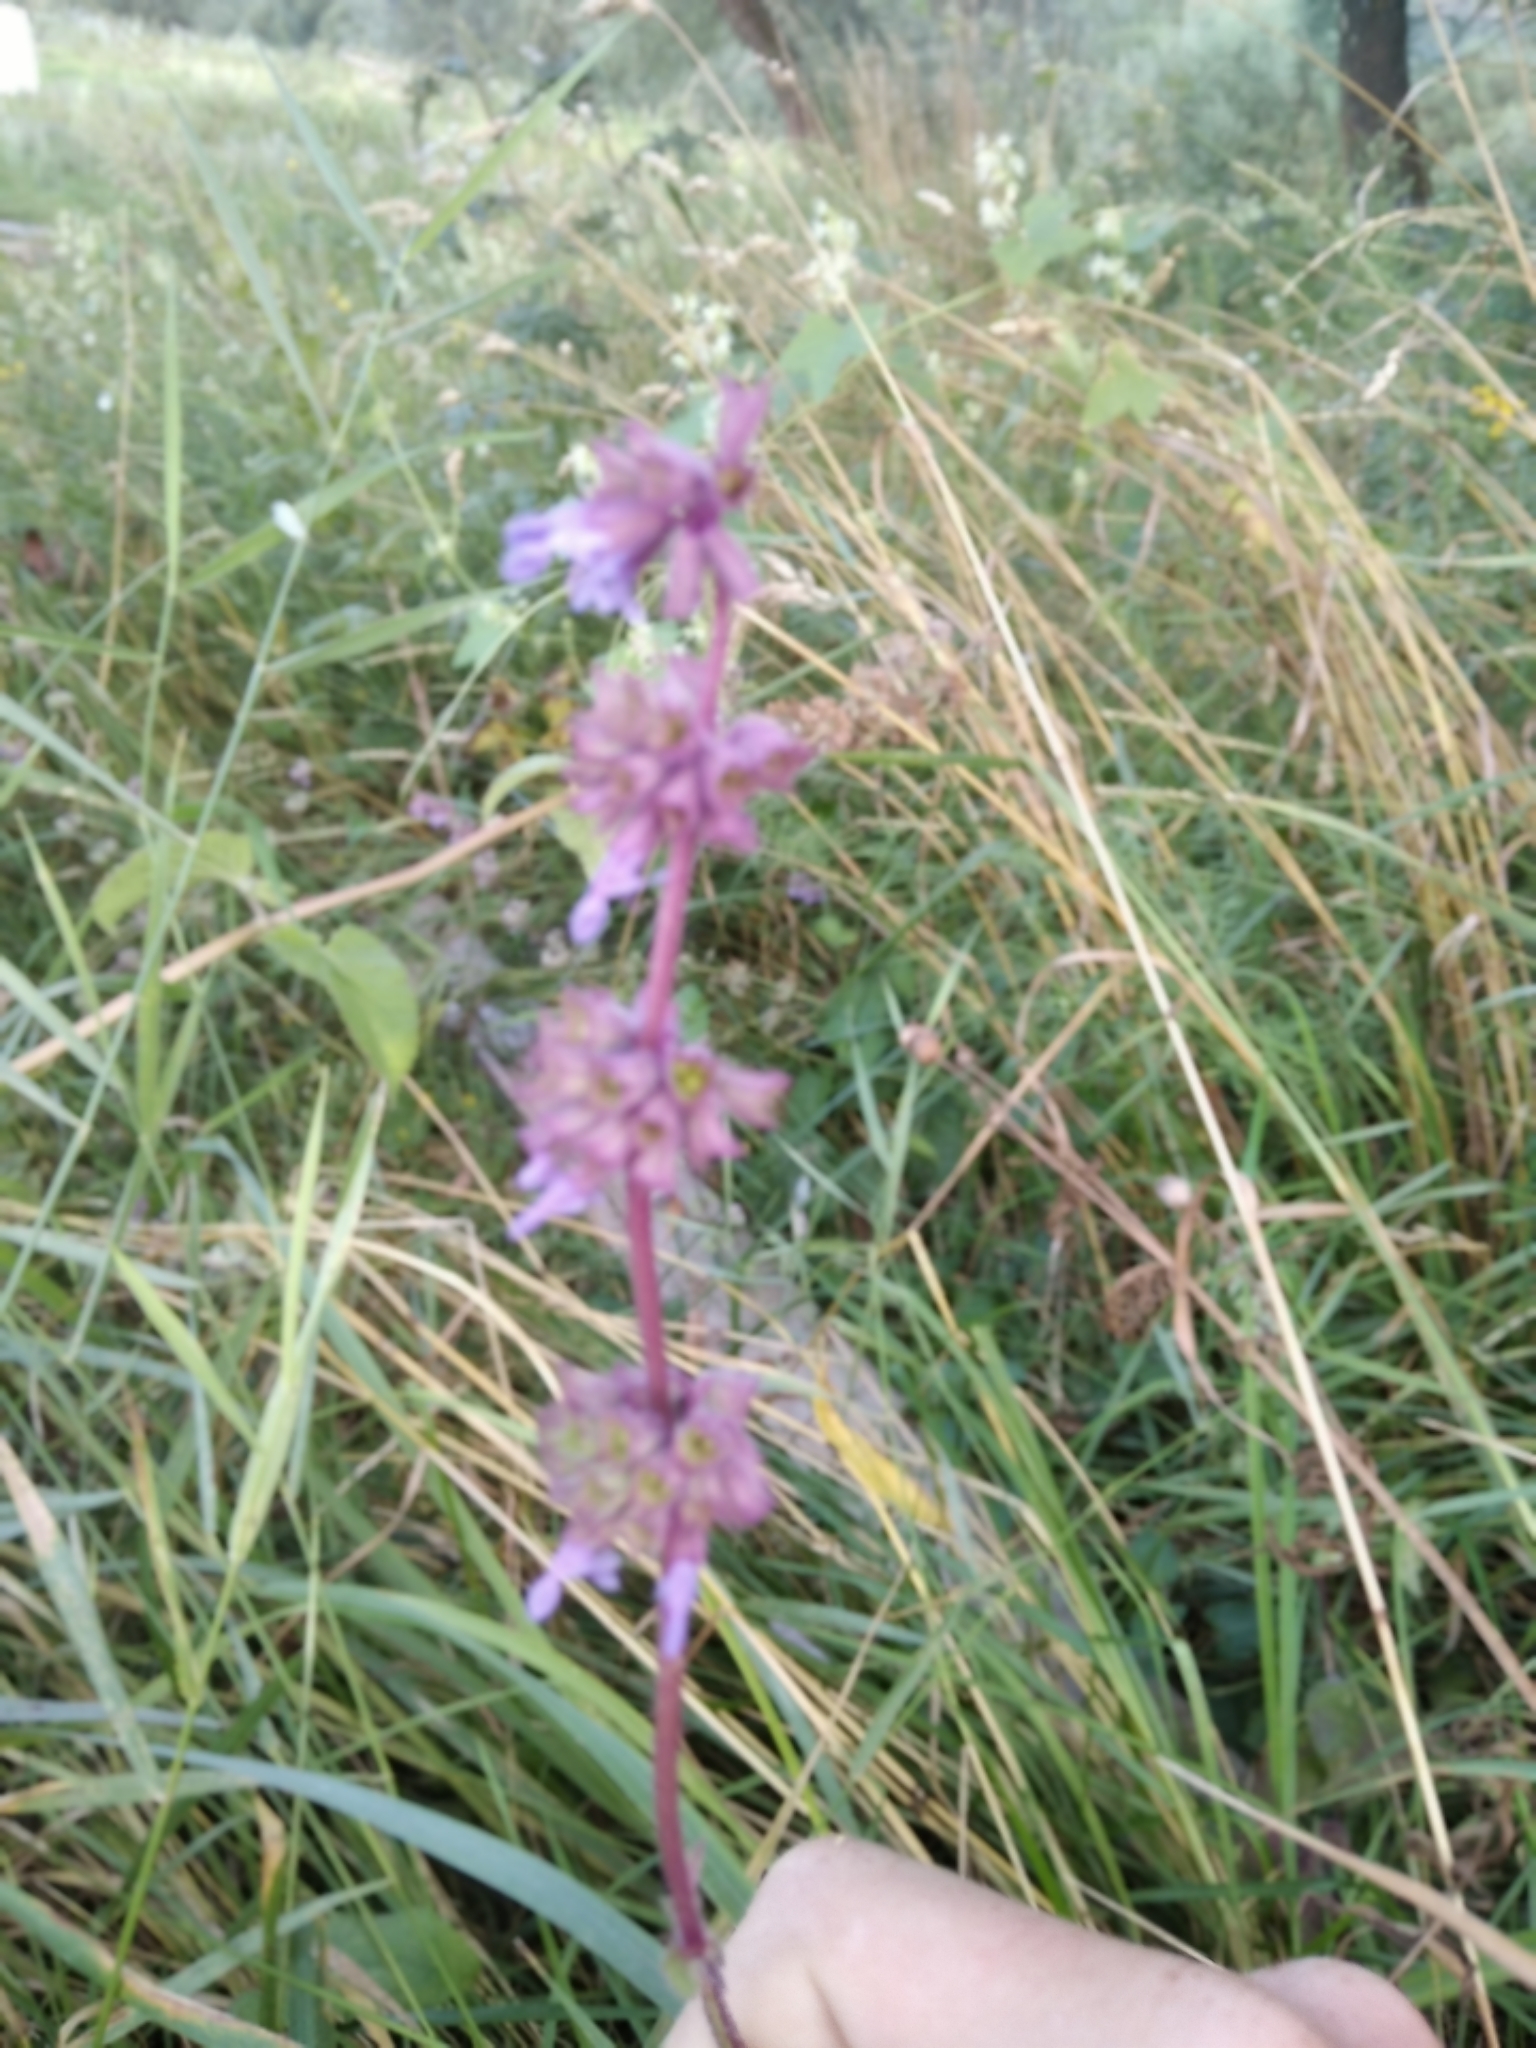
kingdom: Plantae
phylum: Tracheophyta
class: Magnoliopsida
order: Lamiales
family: Lamiaceae
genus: Salvia
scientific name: Salvia verticillata
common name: Whorled clary
